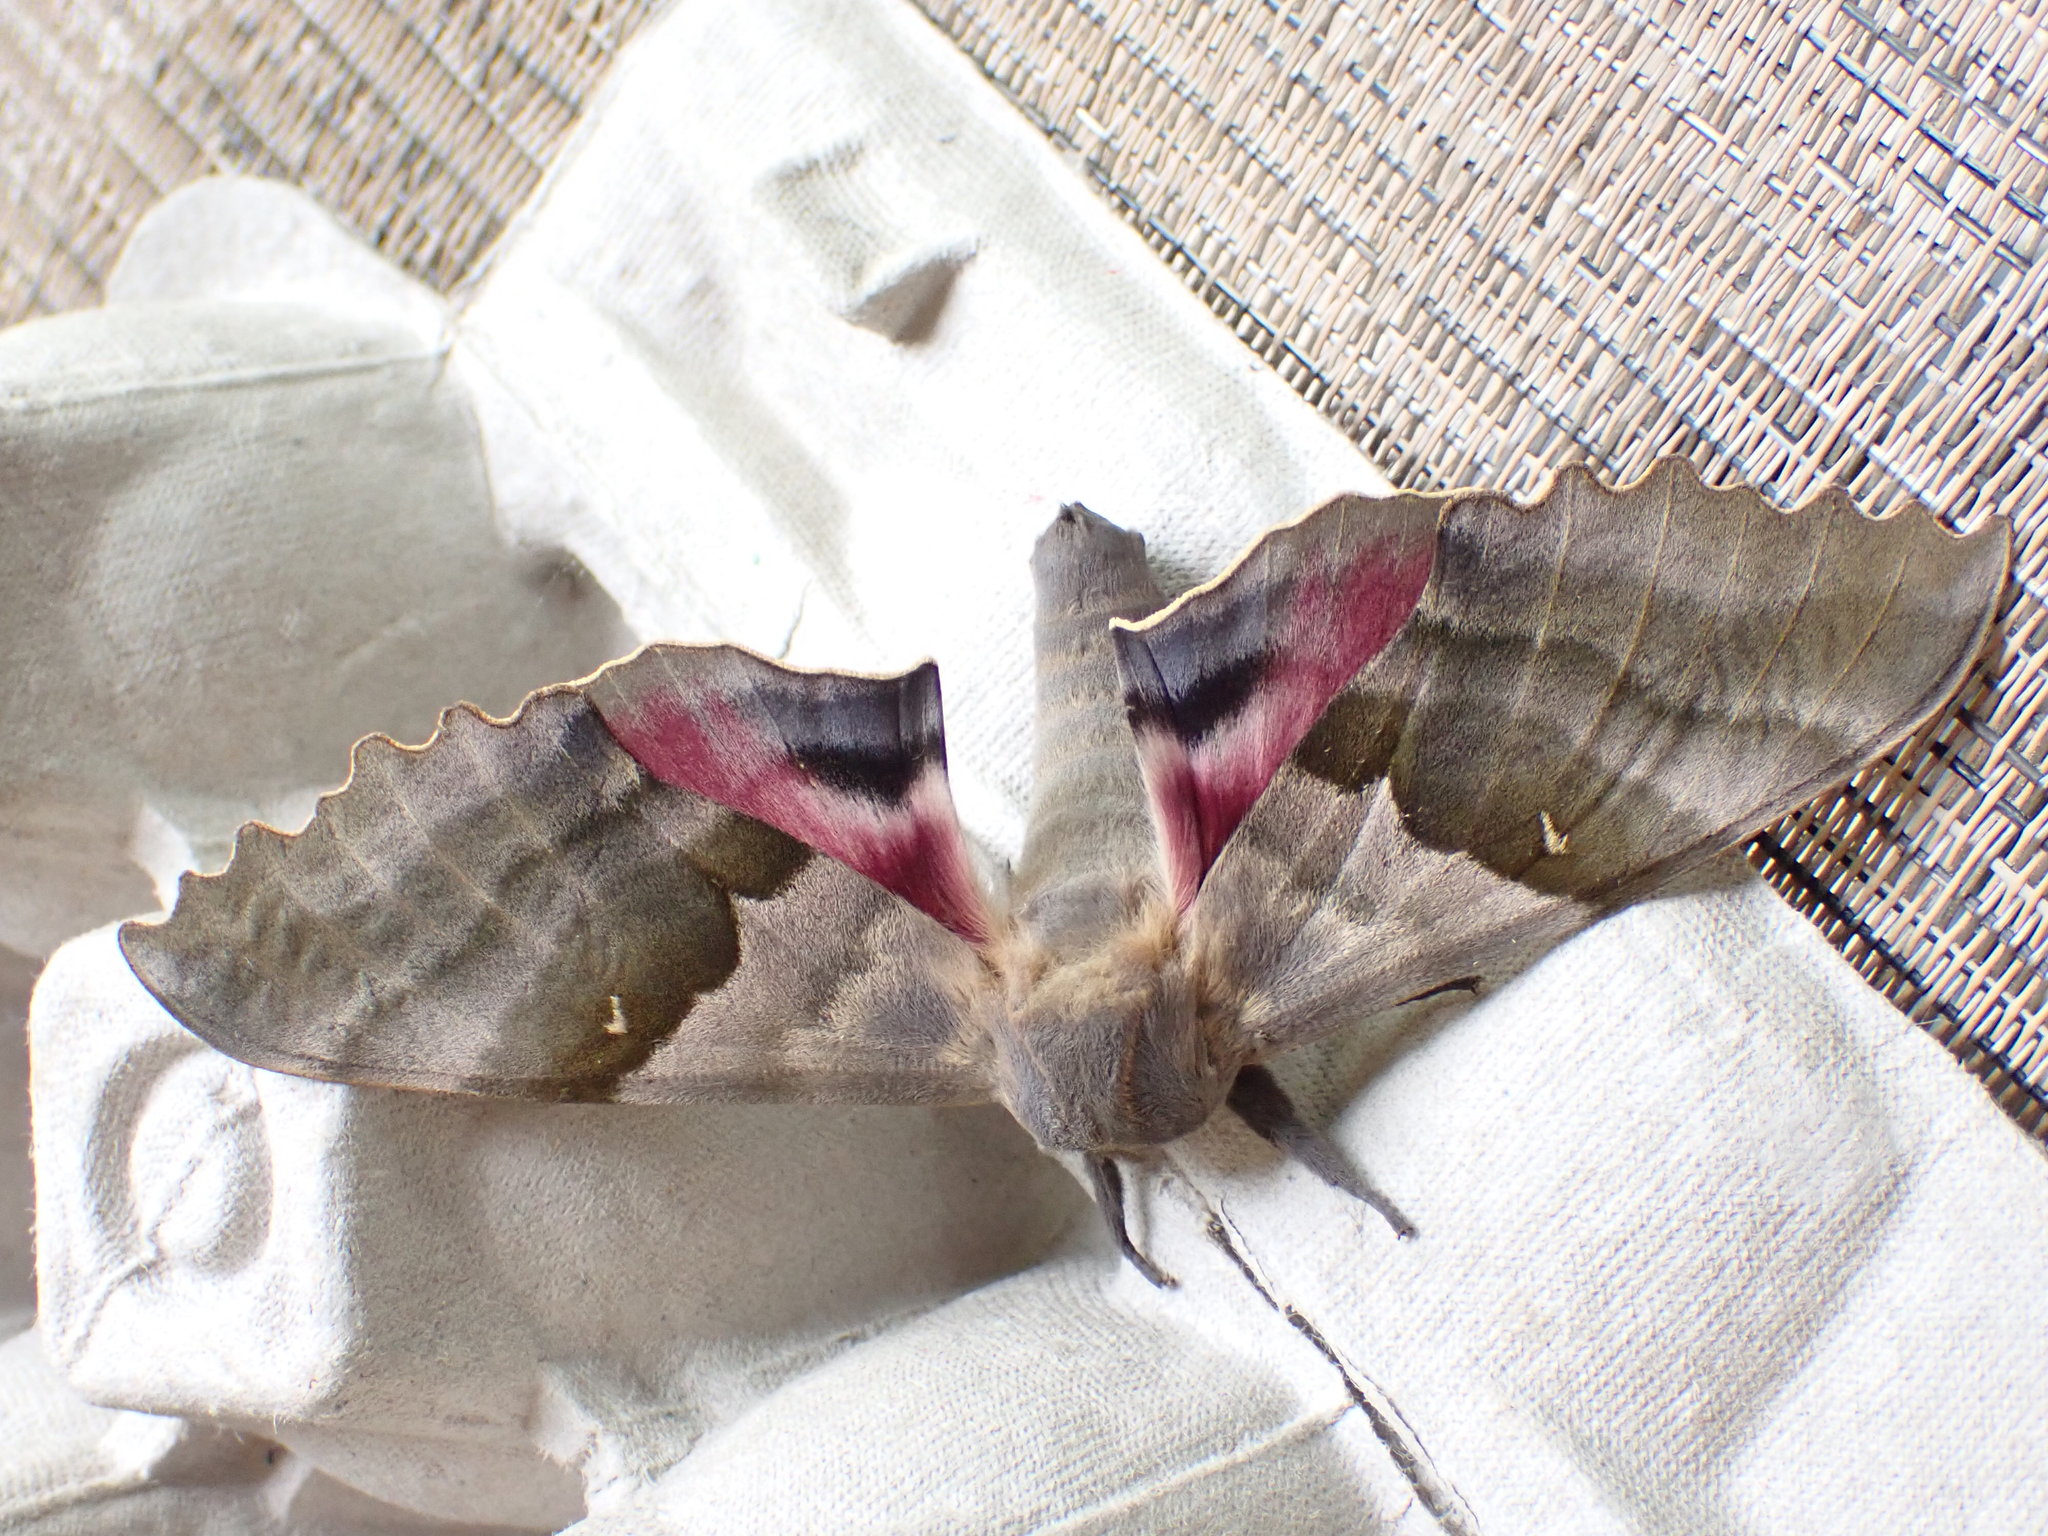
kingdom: Animalia
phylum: Arthropoda
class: Insecta
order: Lepidoptera
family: Sphingidae
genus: Pachysphinx
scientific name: Pachysphinx modesta
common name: Big poplar sphinx
